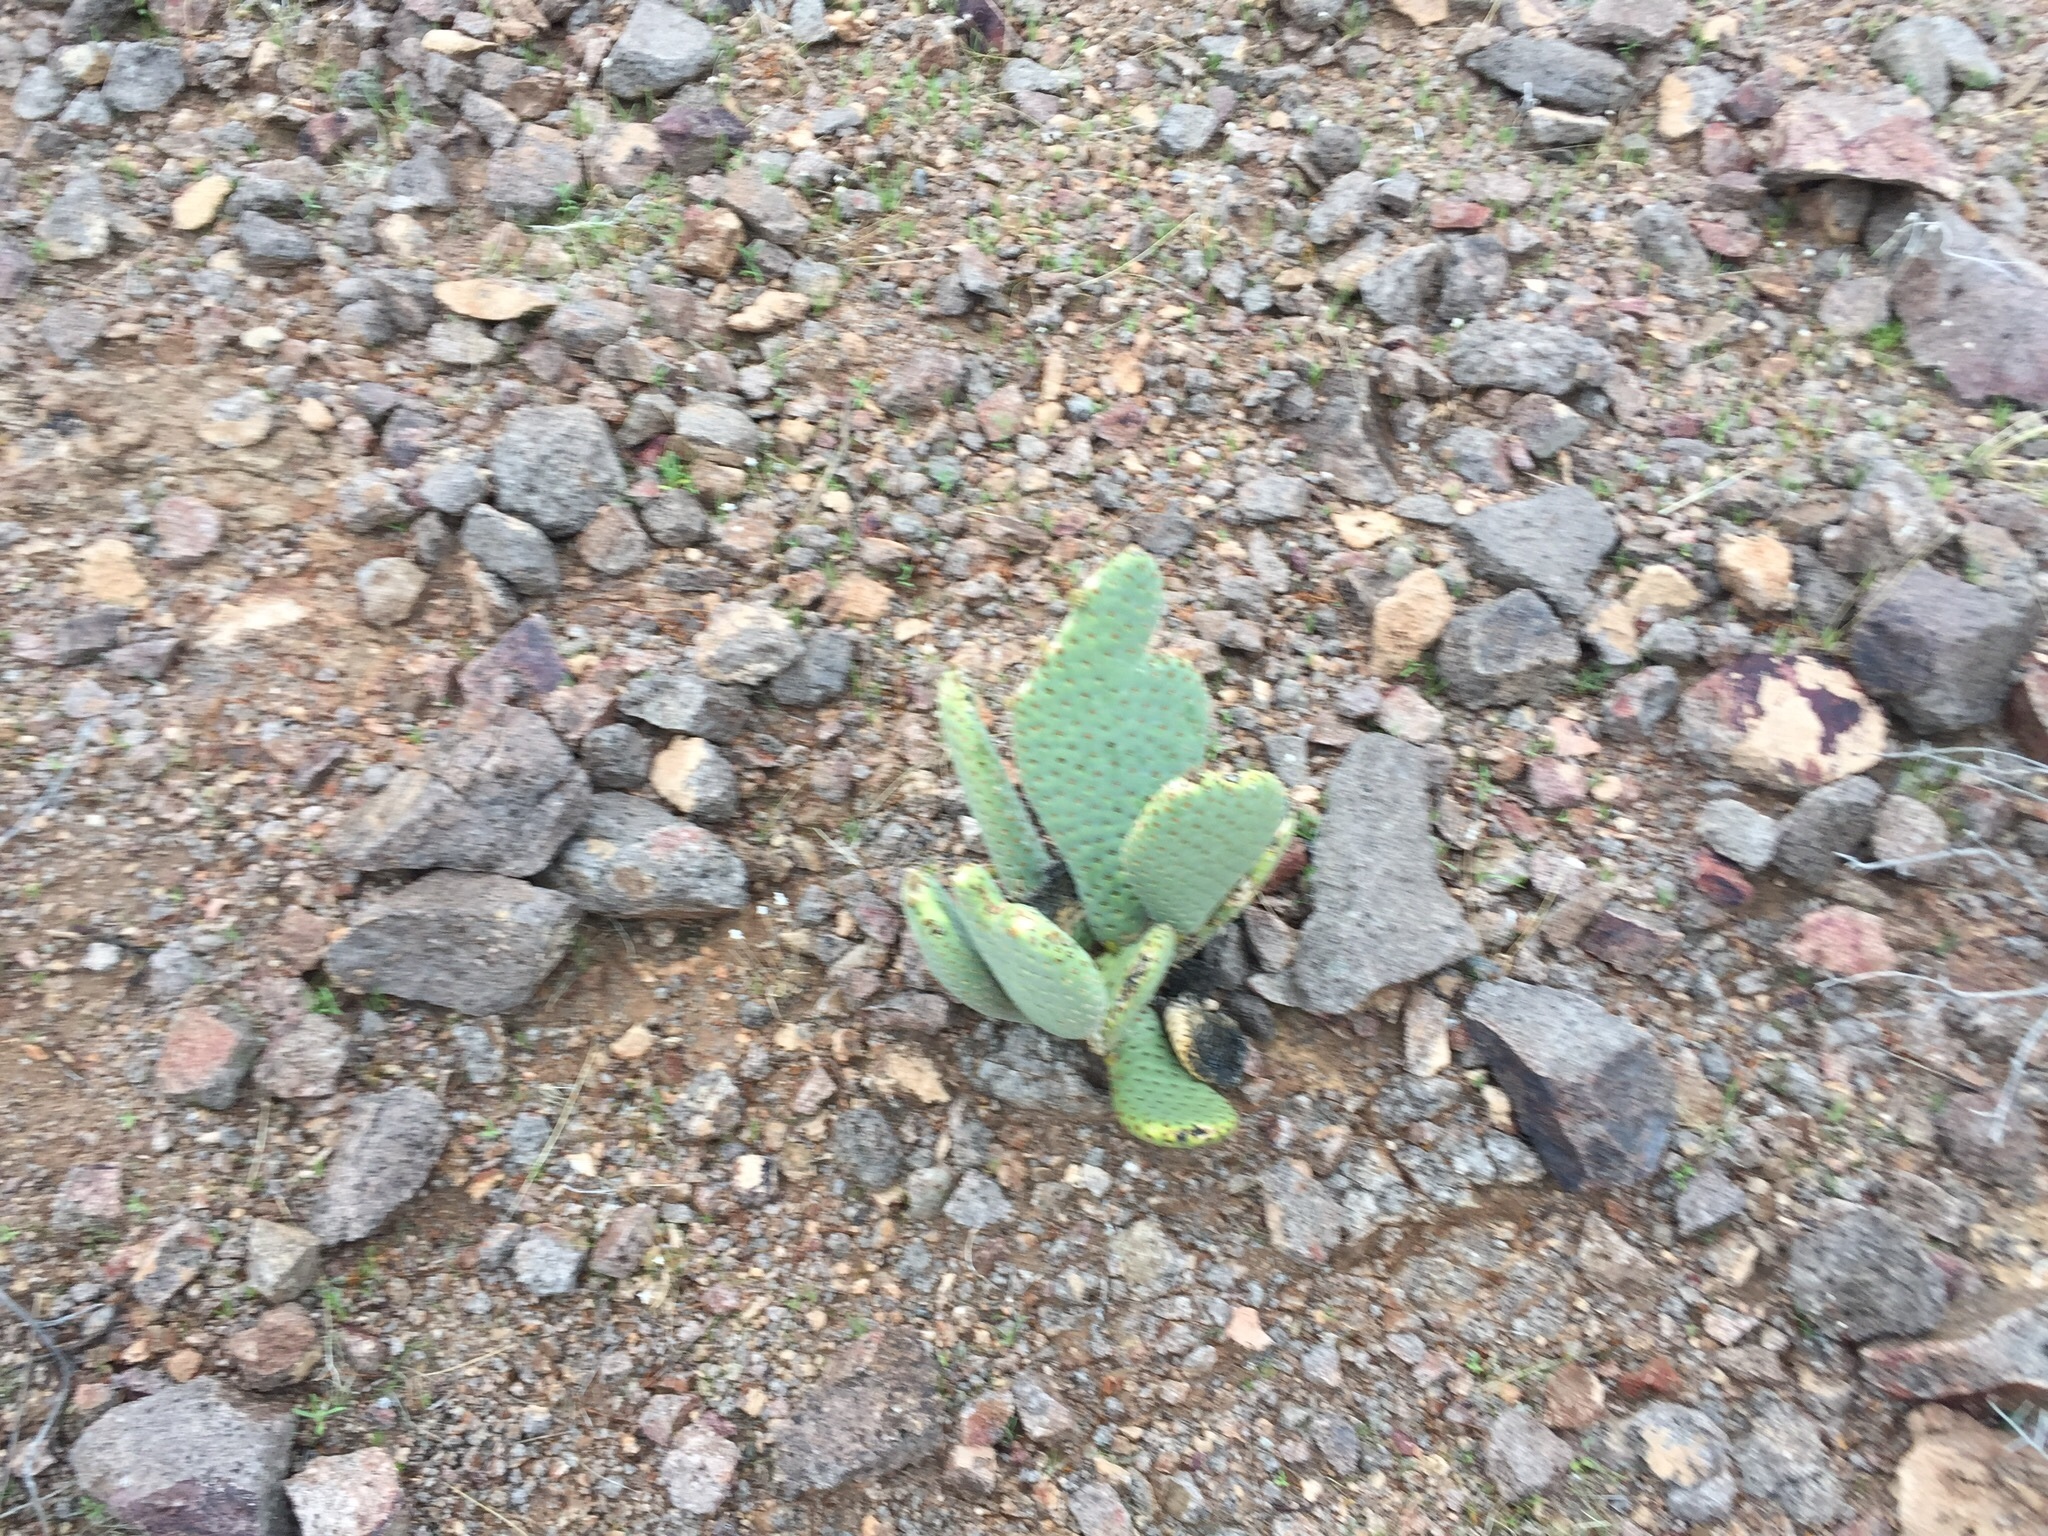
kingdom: Plantae
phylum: Tracheophyta
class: Magnoliopsida
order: Caryophyllales
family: Cactaceae
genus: Opuntia
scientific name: Opuntia basilaris
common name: Beavertail prickly-pear
